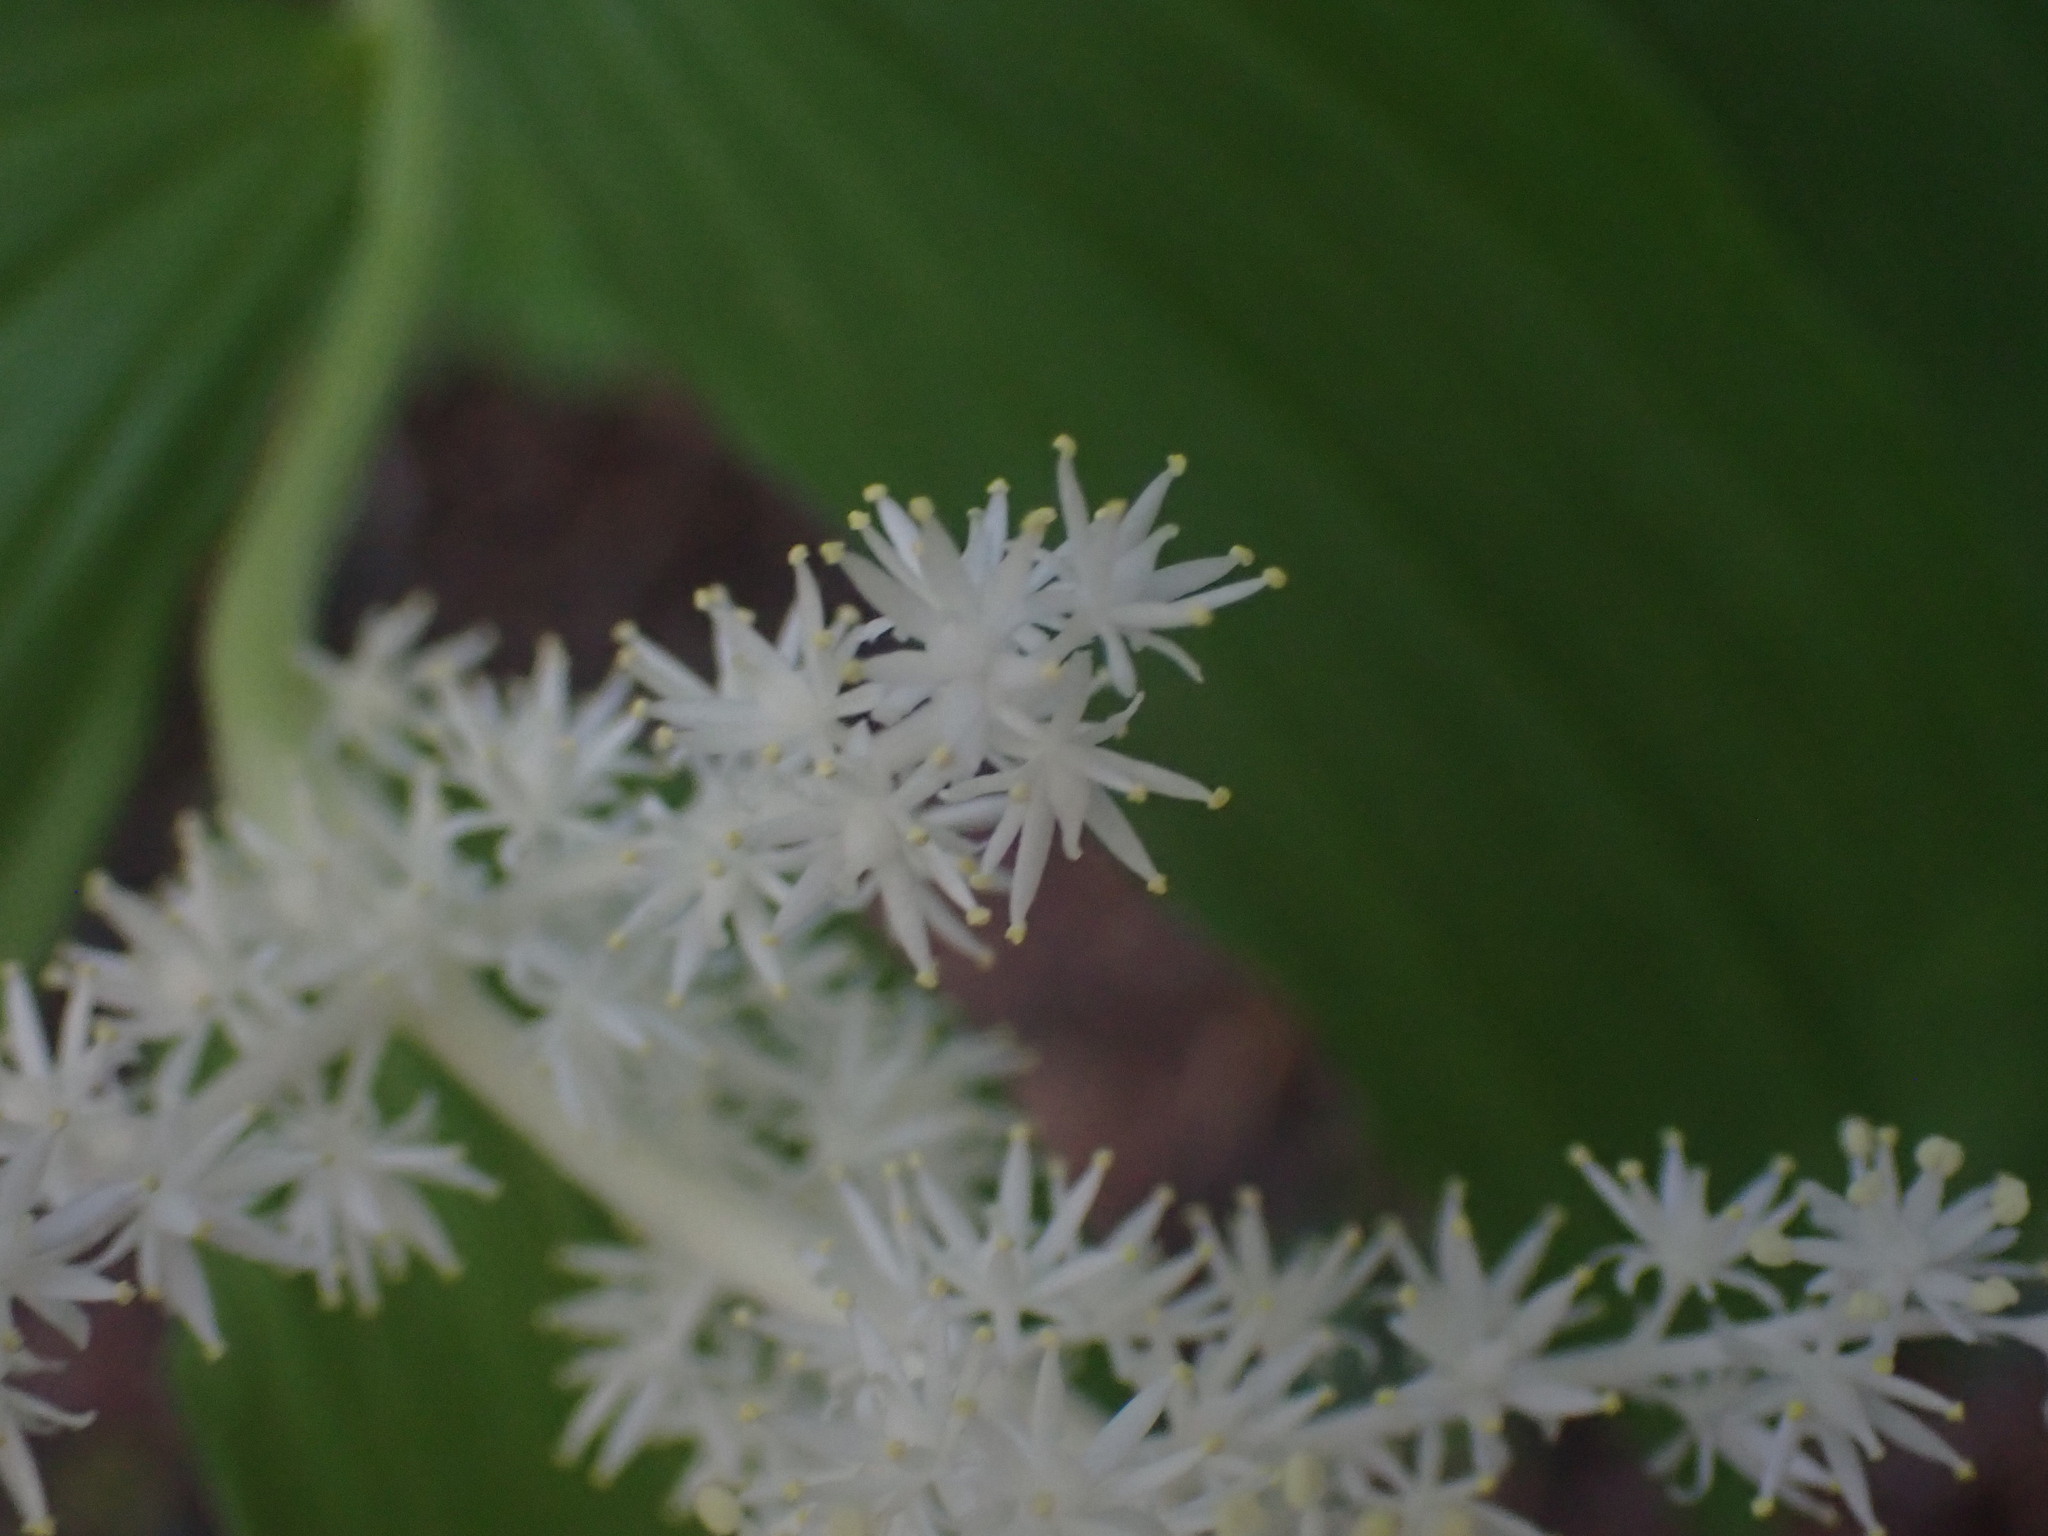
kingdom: Plantae
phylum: Tracheophyta
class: Liliopsida
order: Asparagales
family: Asparagaceae
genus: Maianthemum
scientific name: Maianthemum racemosum
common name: False spikenard
